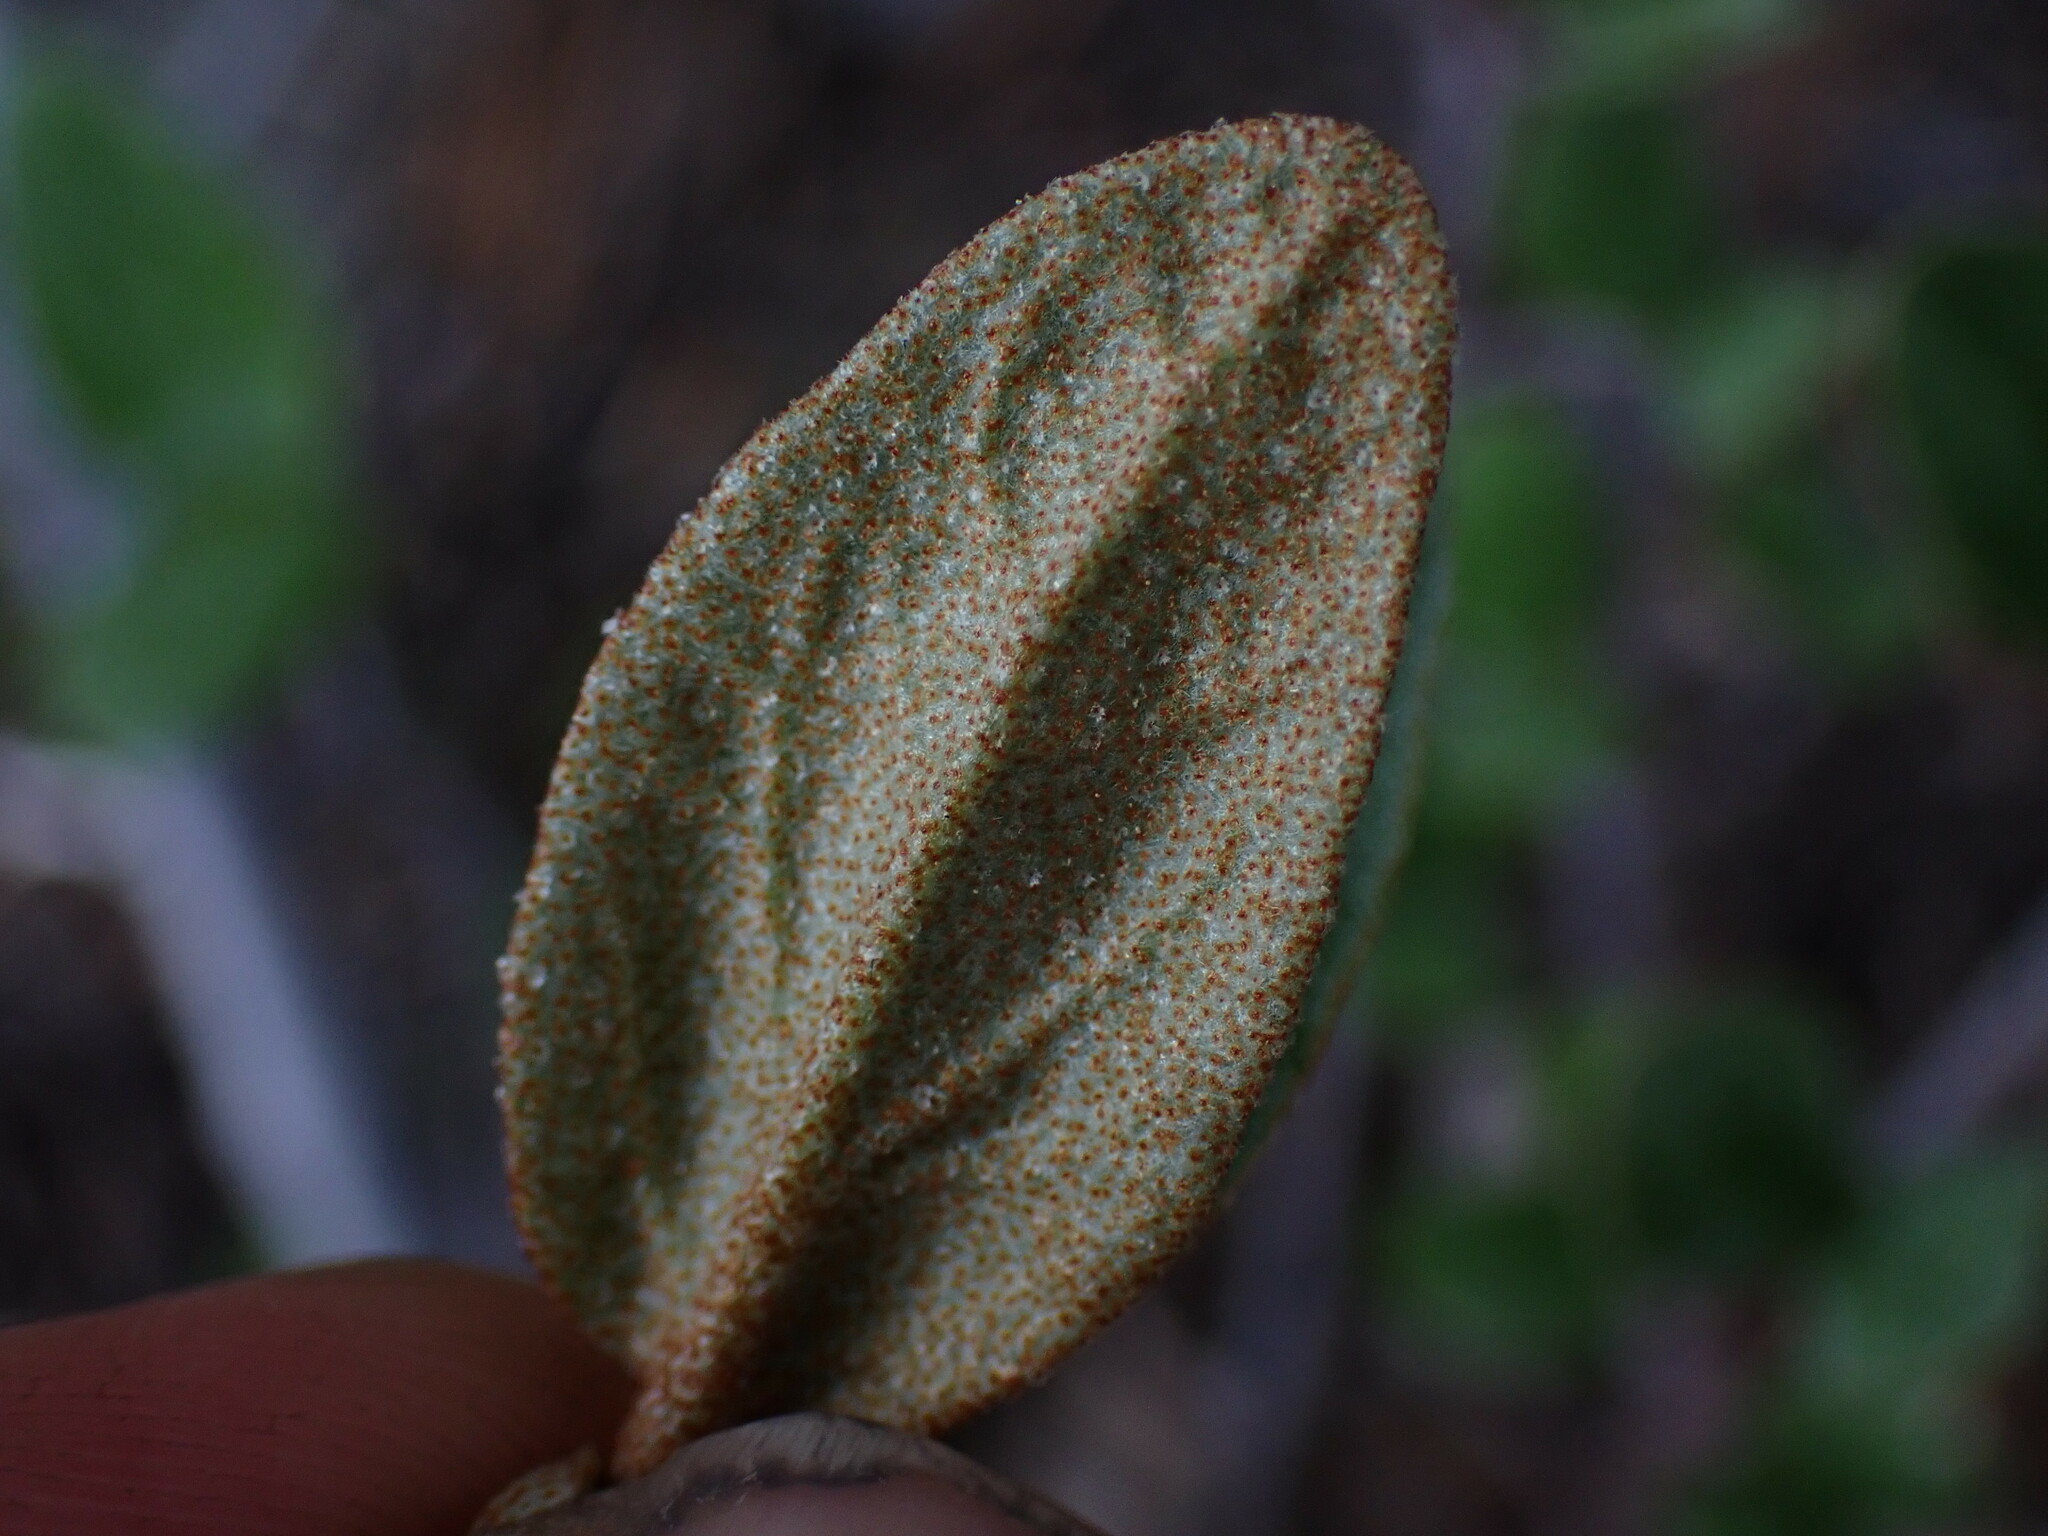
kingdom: Plantae
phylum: Tracheophyta
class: Magnoliopsida
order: Rosales
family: Elaeagnaceae
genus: Shepherdia
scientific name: Shepherdia canadensis
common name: Soapberry
